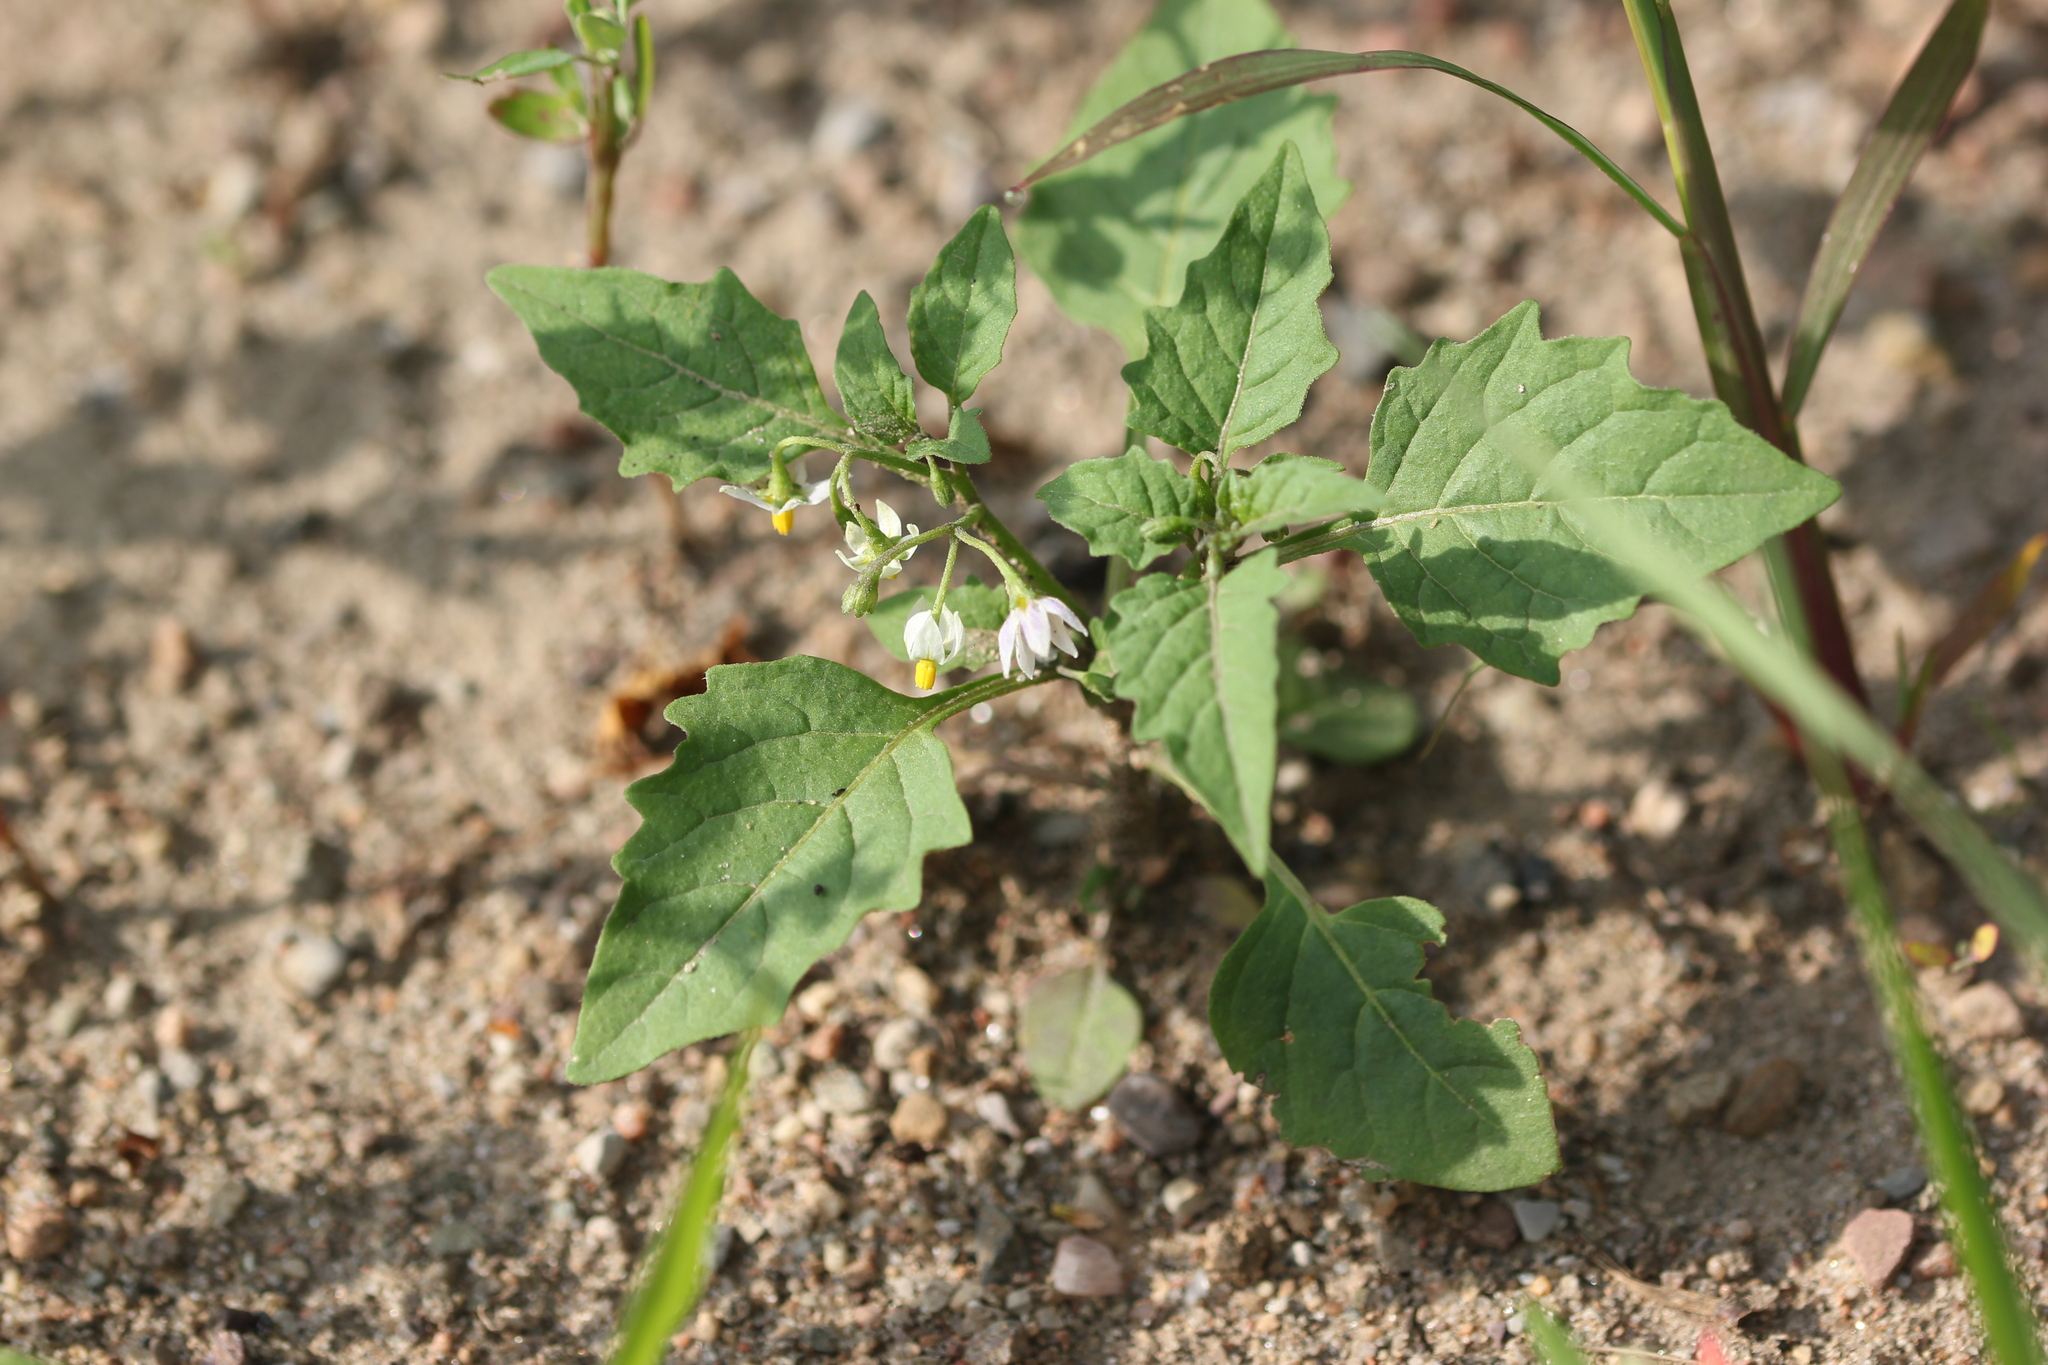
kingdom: Plantae
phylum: Tracheophyta
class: Magnoliopsida
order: Solanales
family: Solanaceae
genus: Solanum
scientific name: Solanum emulans
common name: Eastern black nightshade
